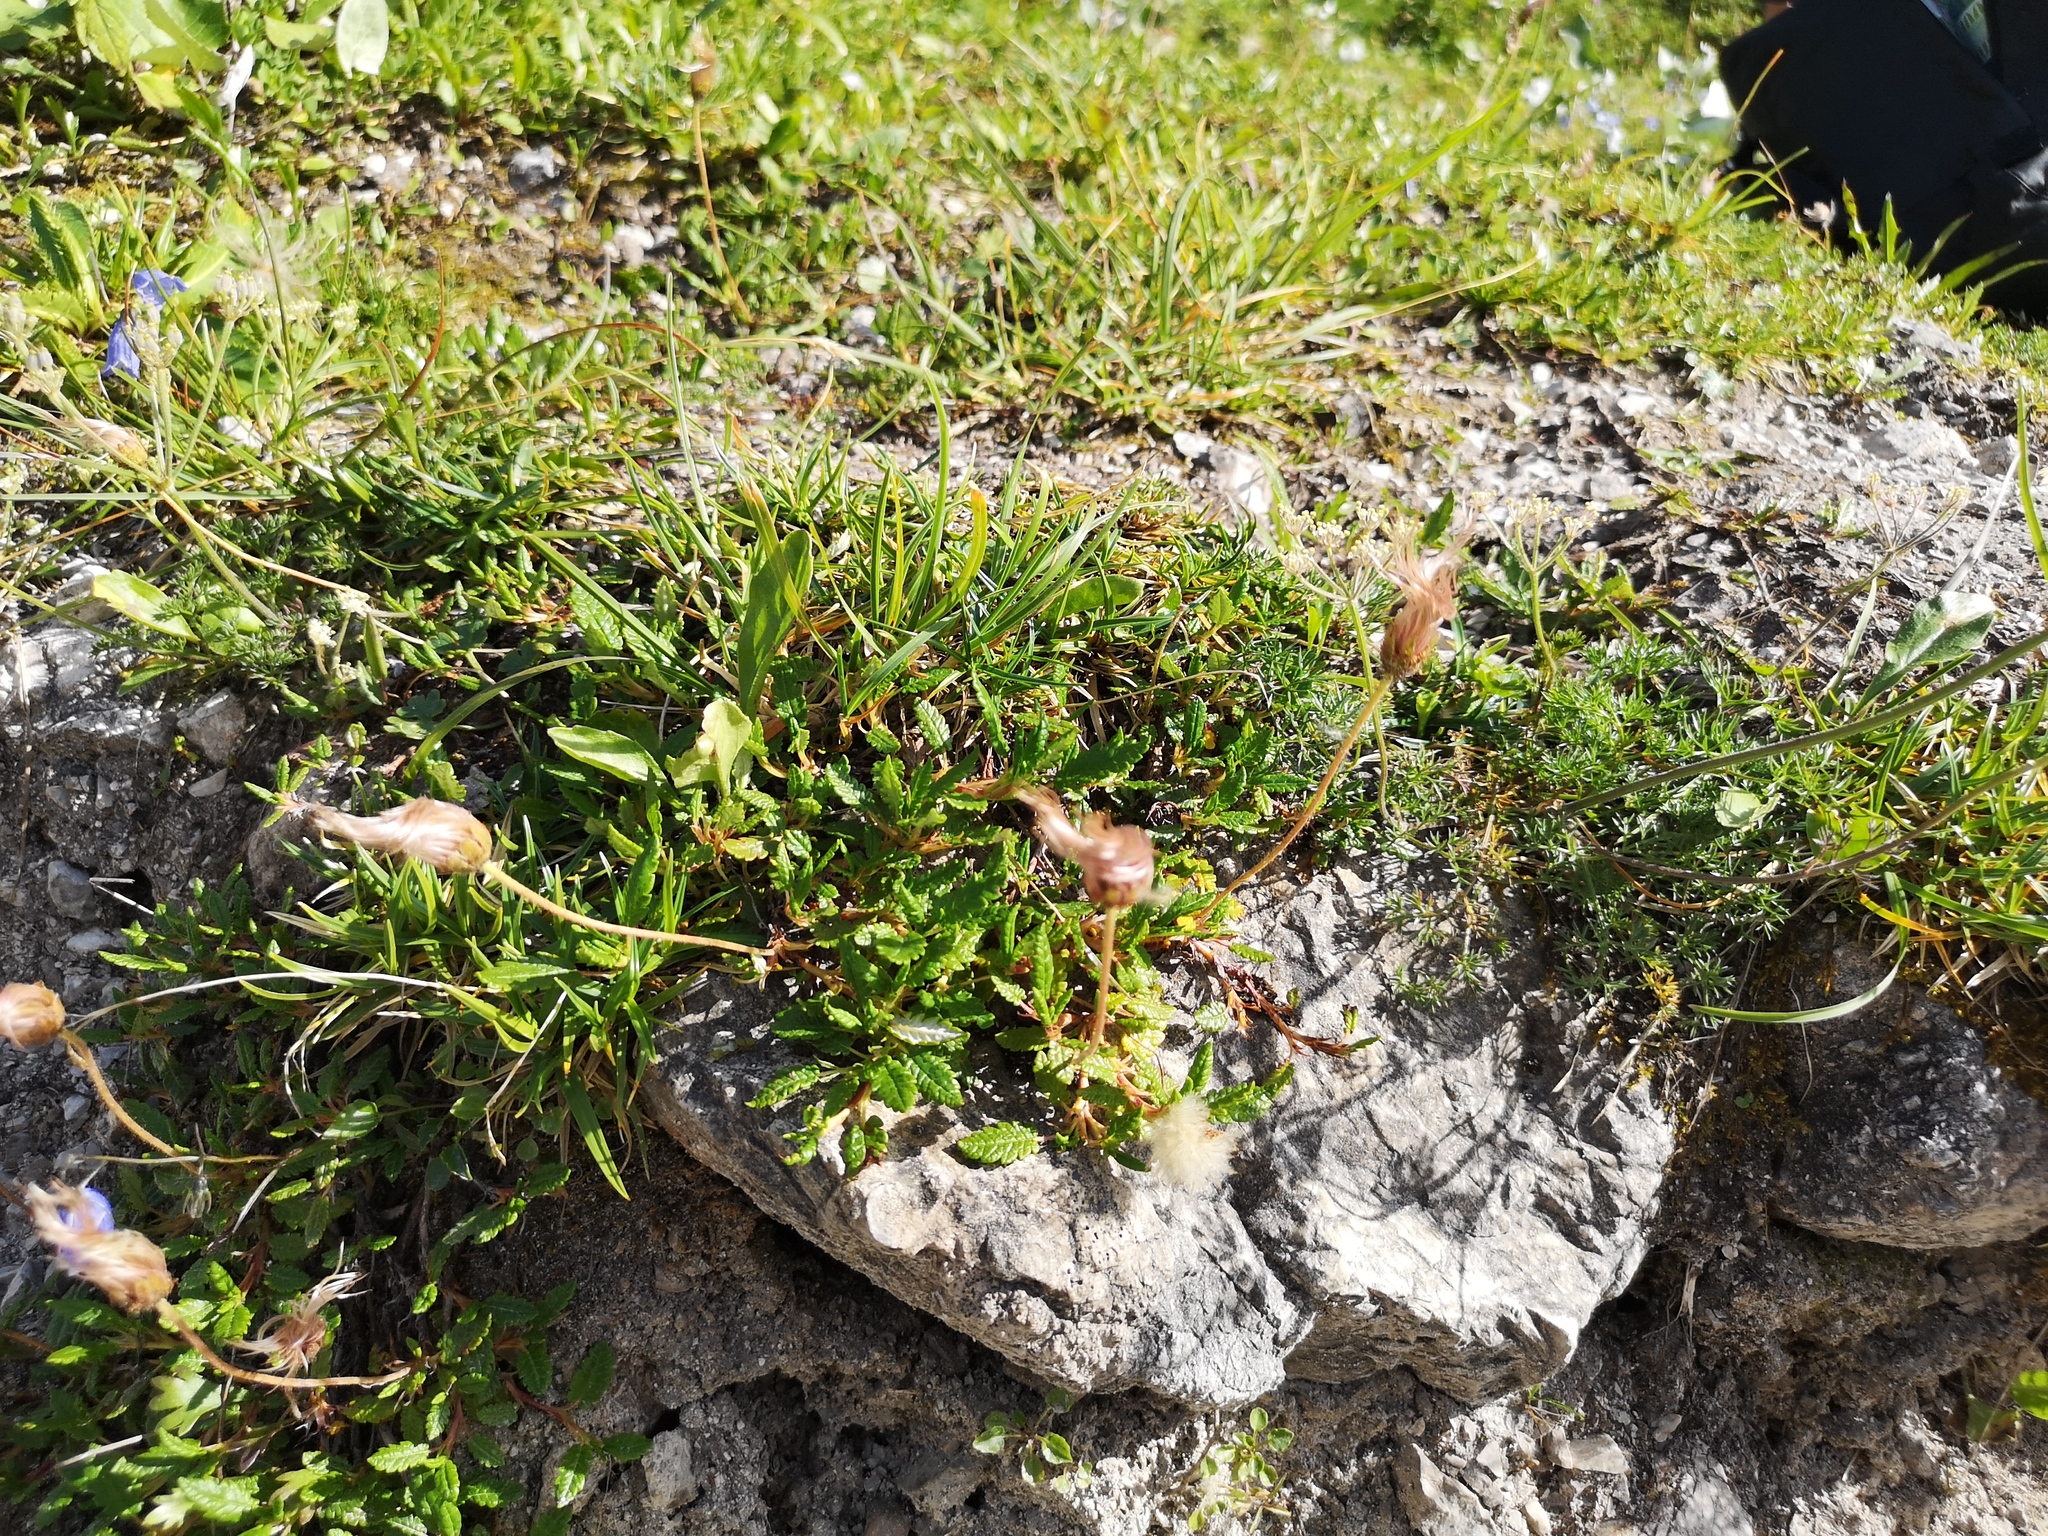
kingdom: Plantae
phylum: Tracheophyta
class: Magnoliopsida
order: Rosales
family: Rosaceae
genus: Dryas
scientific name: Dryas octopetala
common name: Eight-petal mountain-avens
